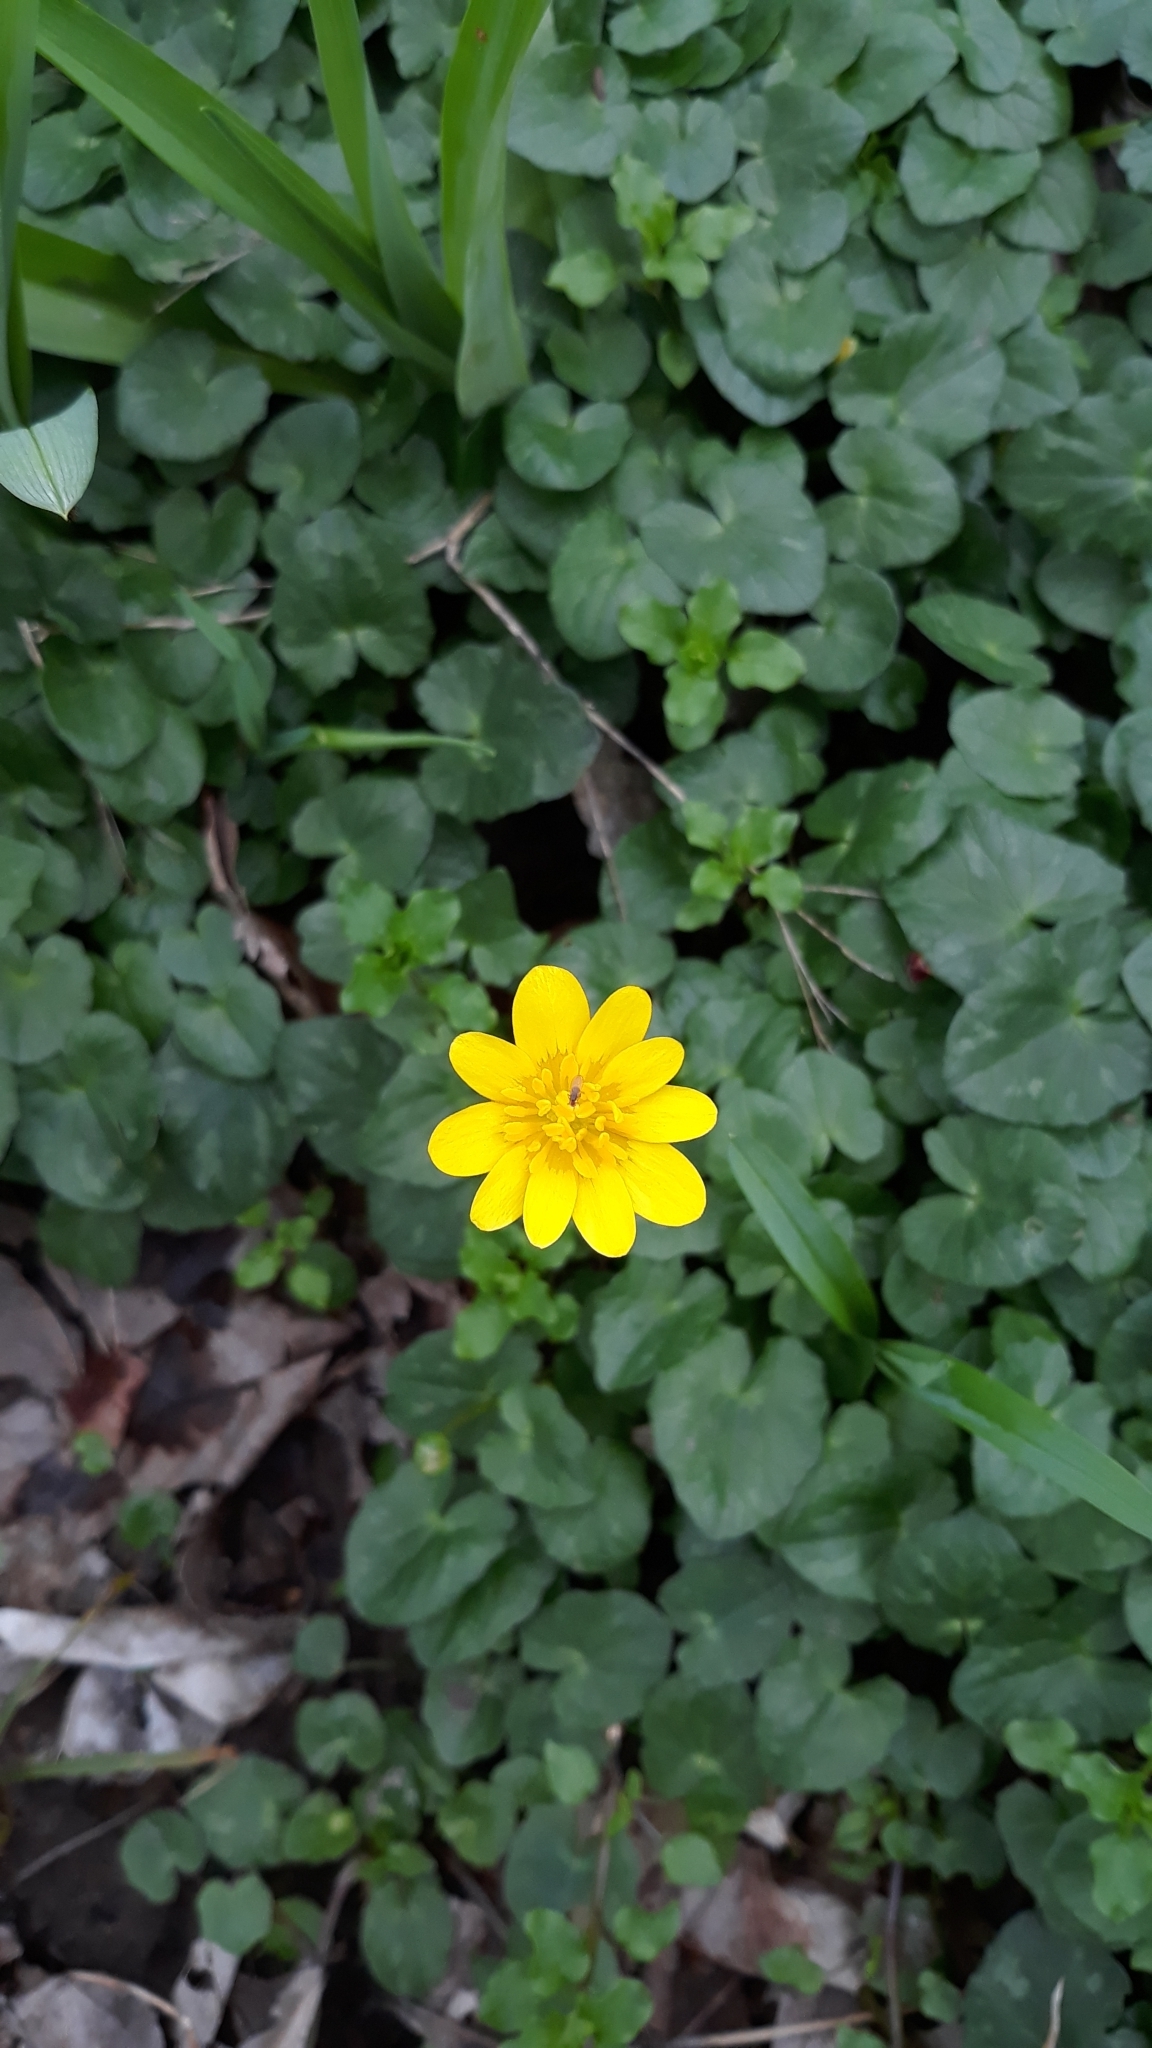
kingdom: Plantae
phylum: Tracheophyta
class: Magnoliopsida
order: Ranunculales
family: Ranunculaceae
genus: Ficaria
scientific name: Ficaria verna
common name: Lesser celandine
